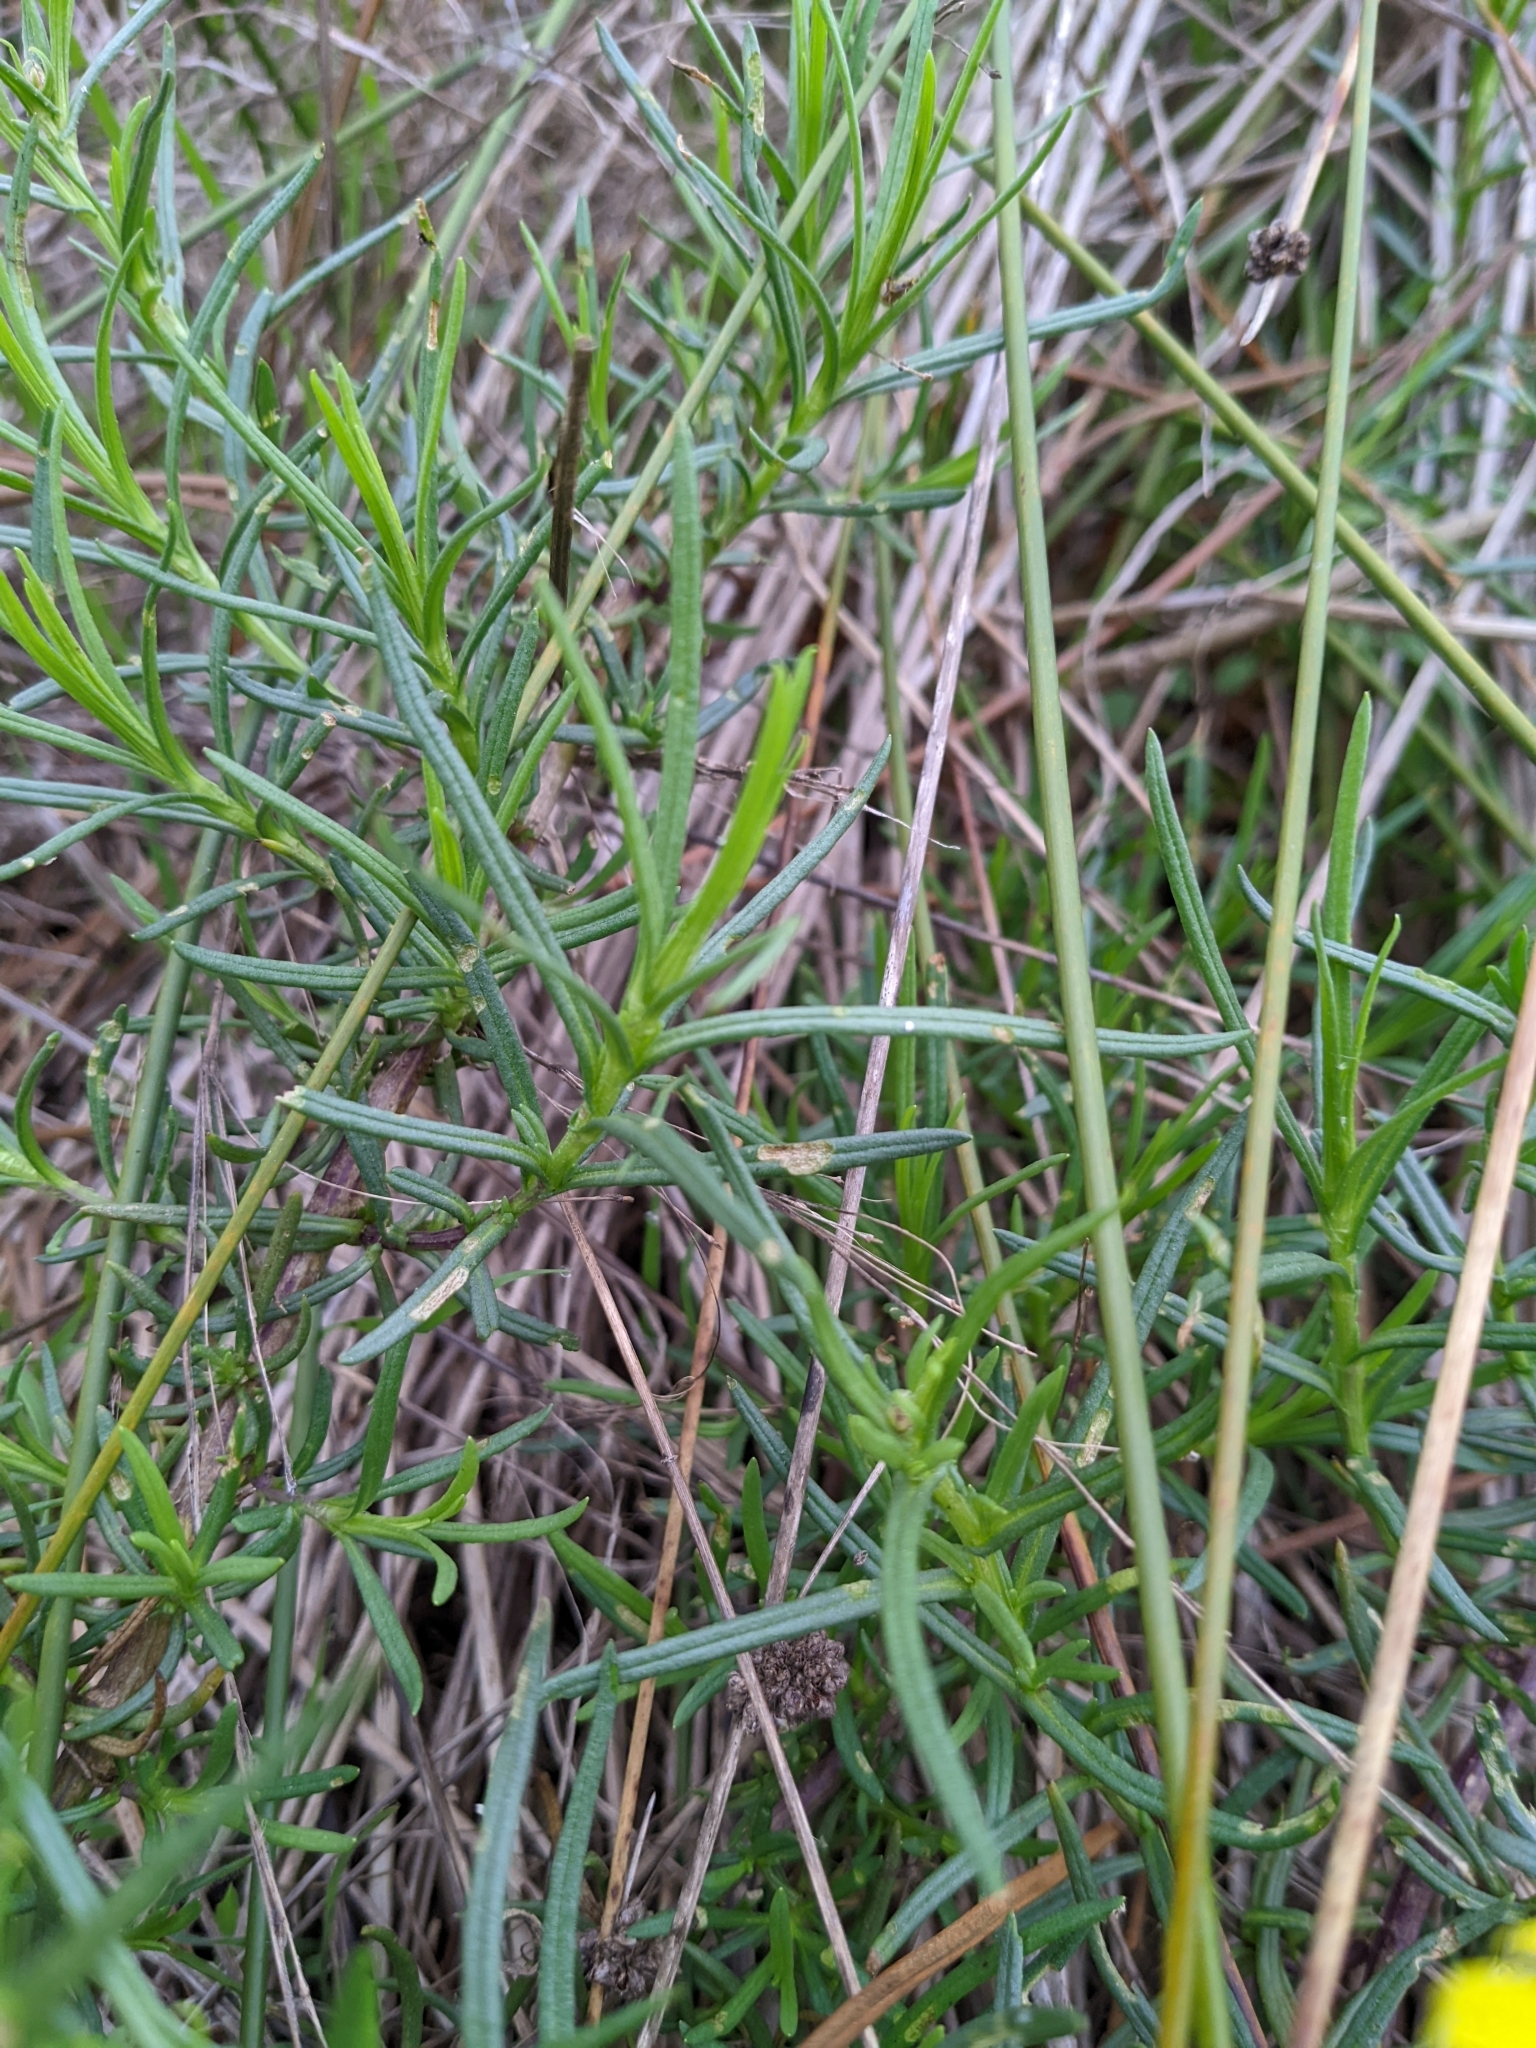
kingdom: Plantae
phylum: Tracheophyta
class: Magnoliopsida
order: Asterales
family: Asteraceae
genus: Senecio
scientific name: Senecio inaequidens
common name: Narrow-leaved ragwort
